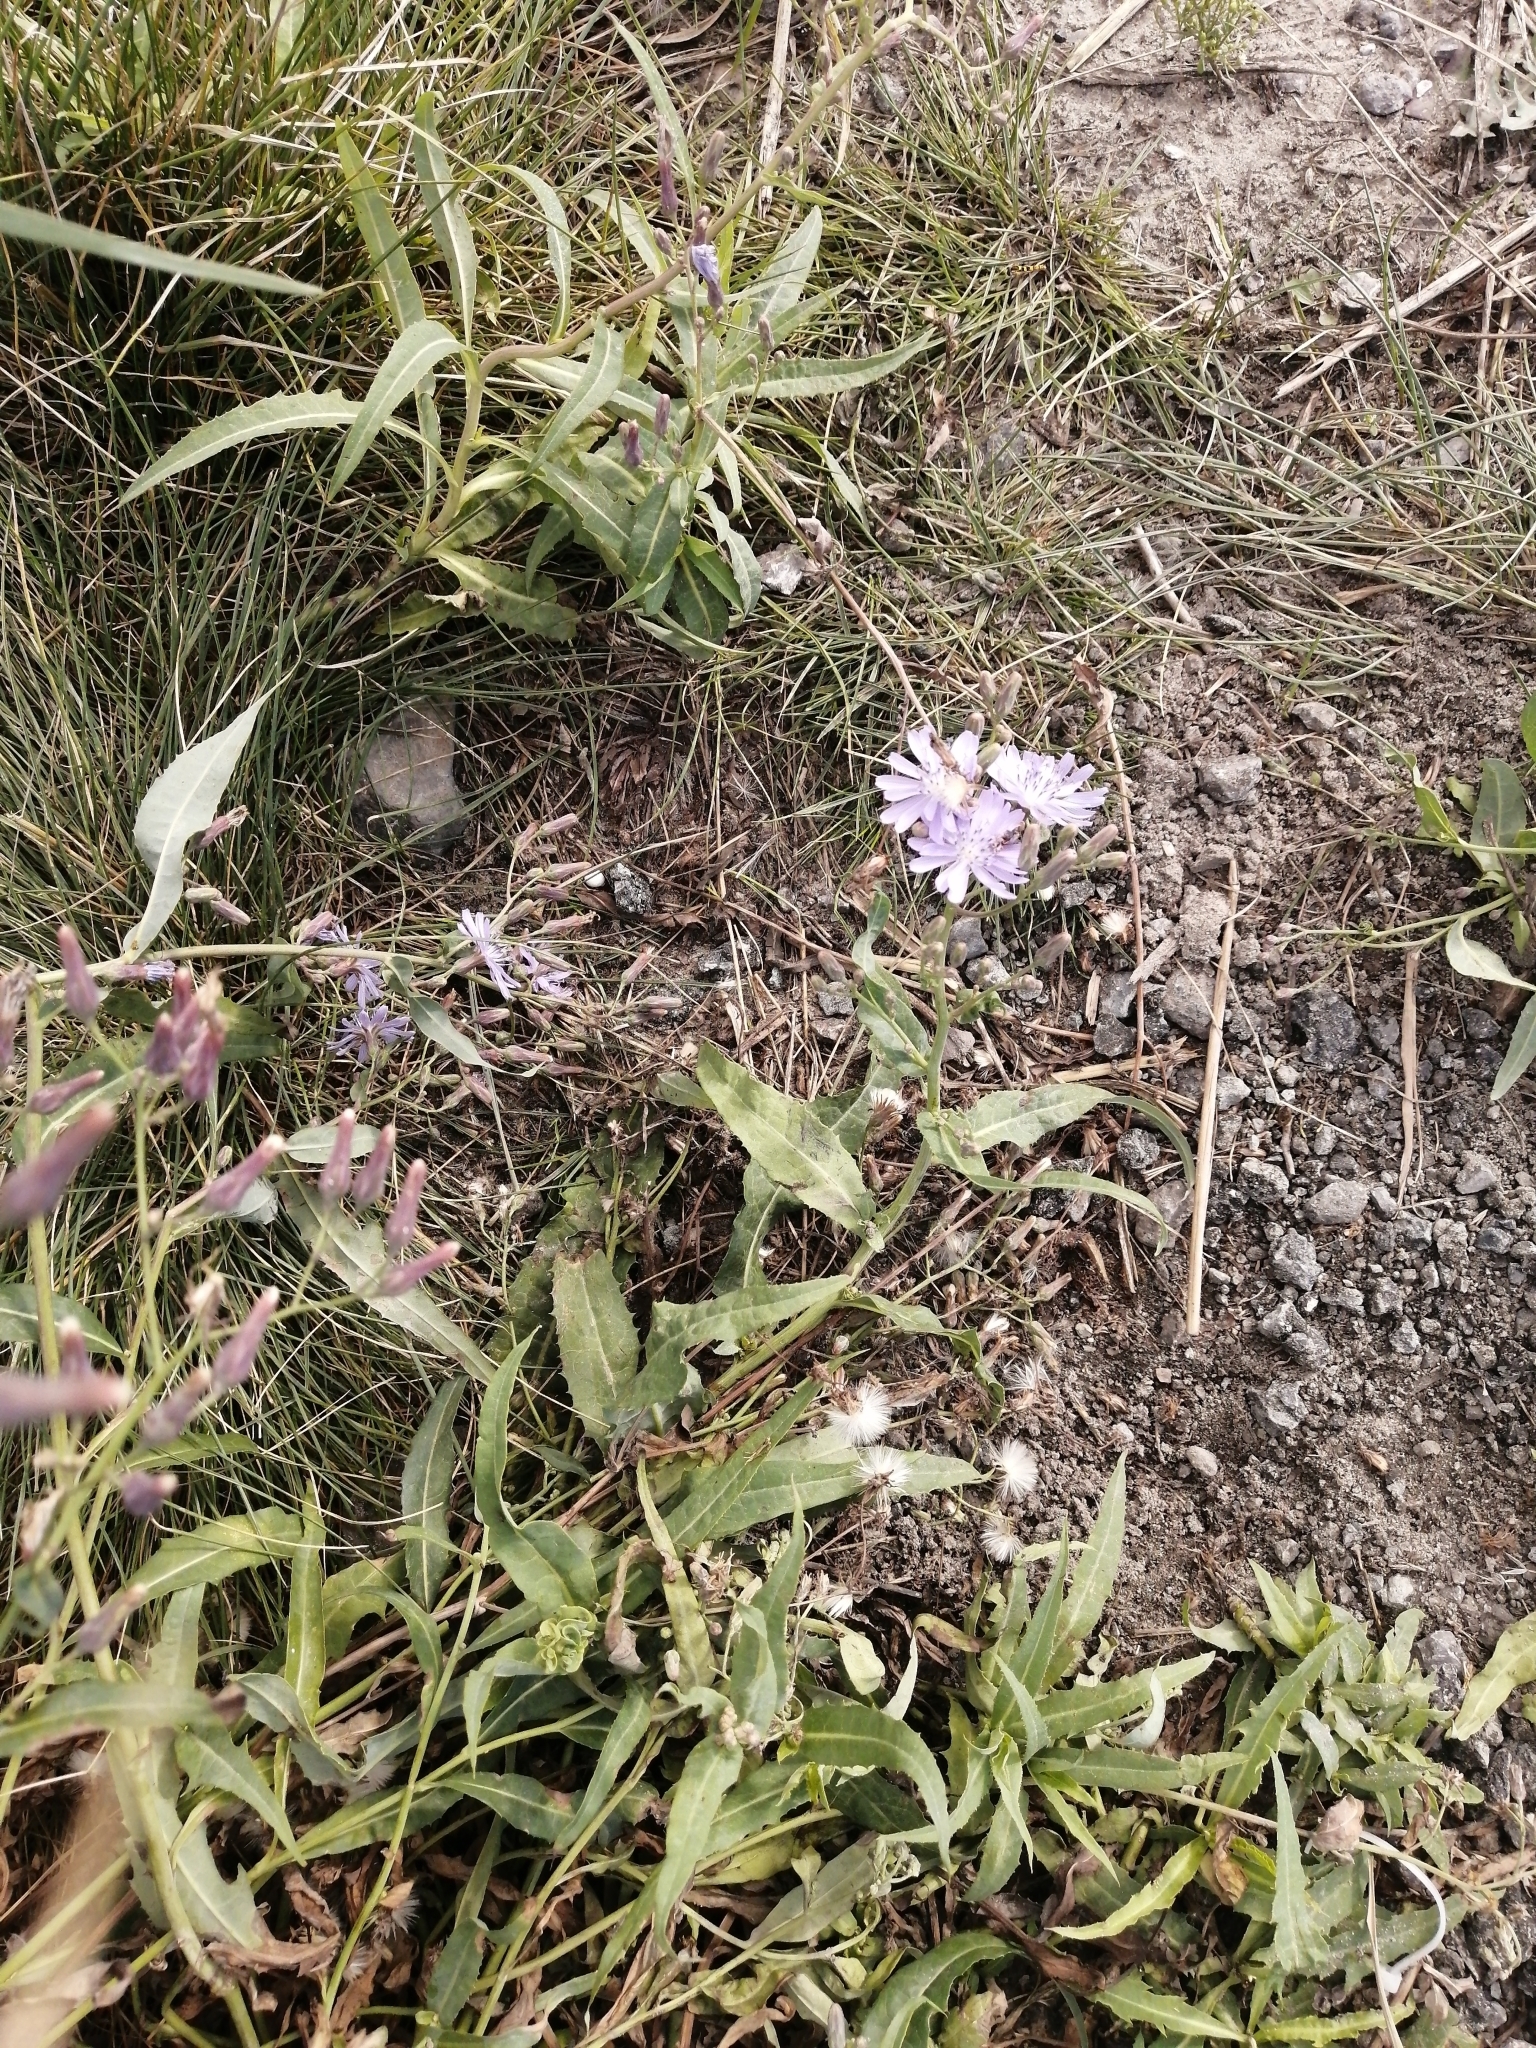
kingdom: Plantae
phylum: Tracheophyta
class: Magnoliopsida
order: Asterales
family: Asteraceae
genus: Lactuca
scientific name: Lactuca sibirica
